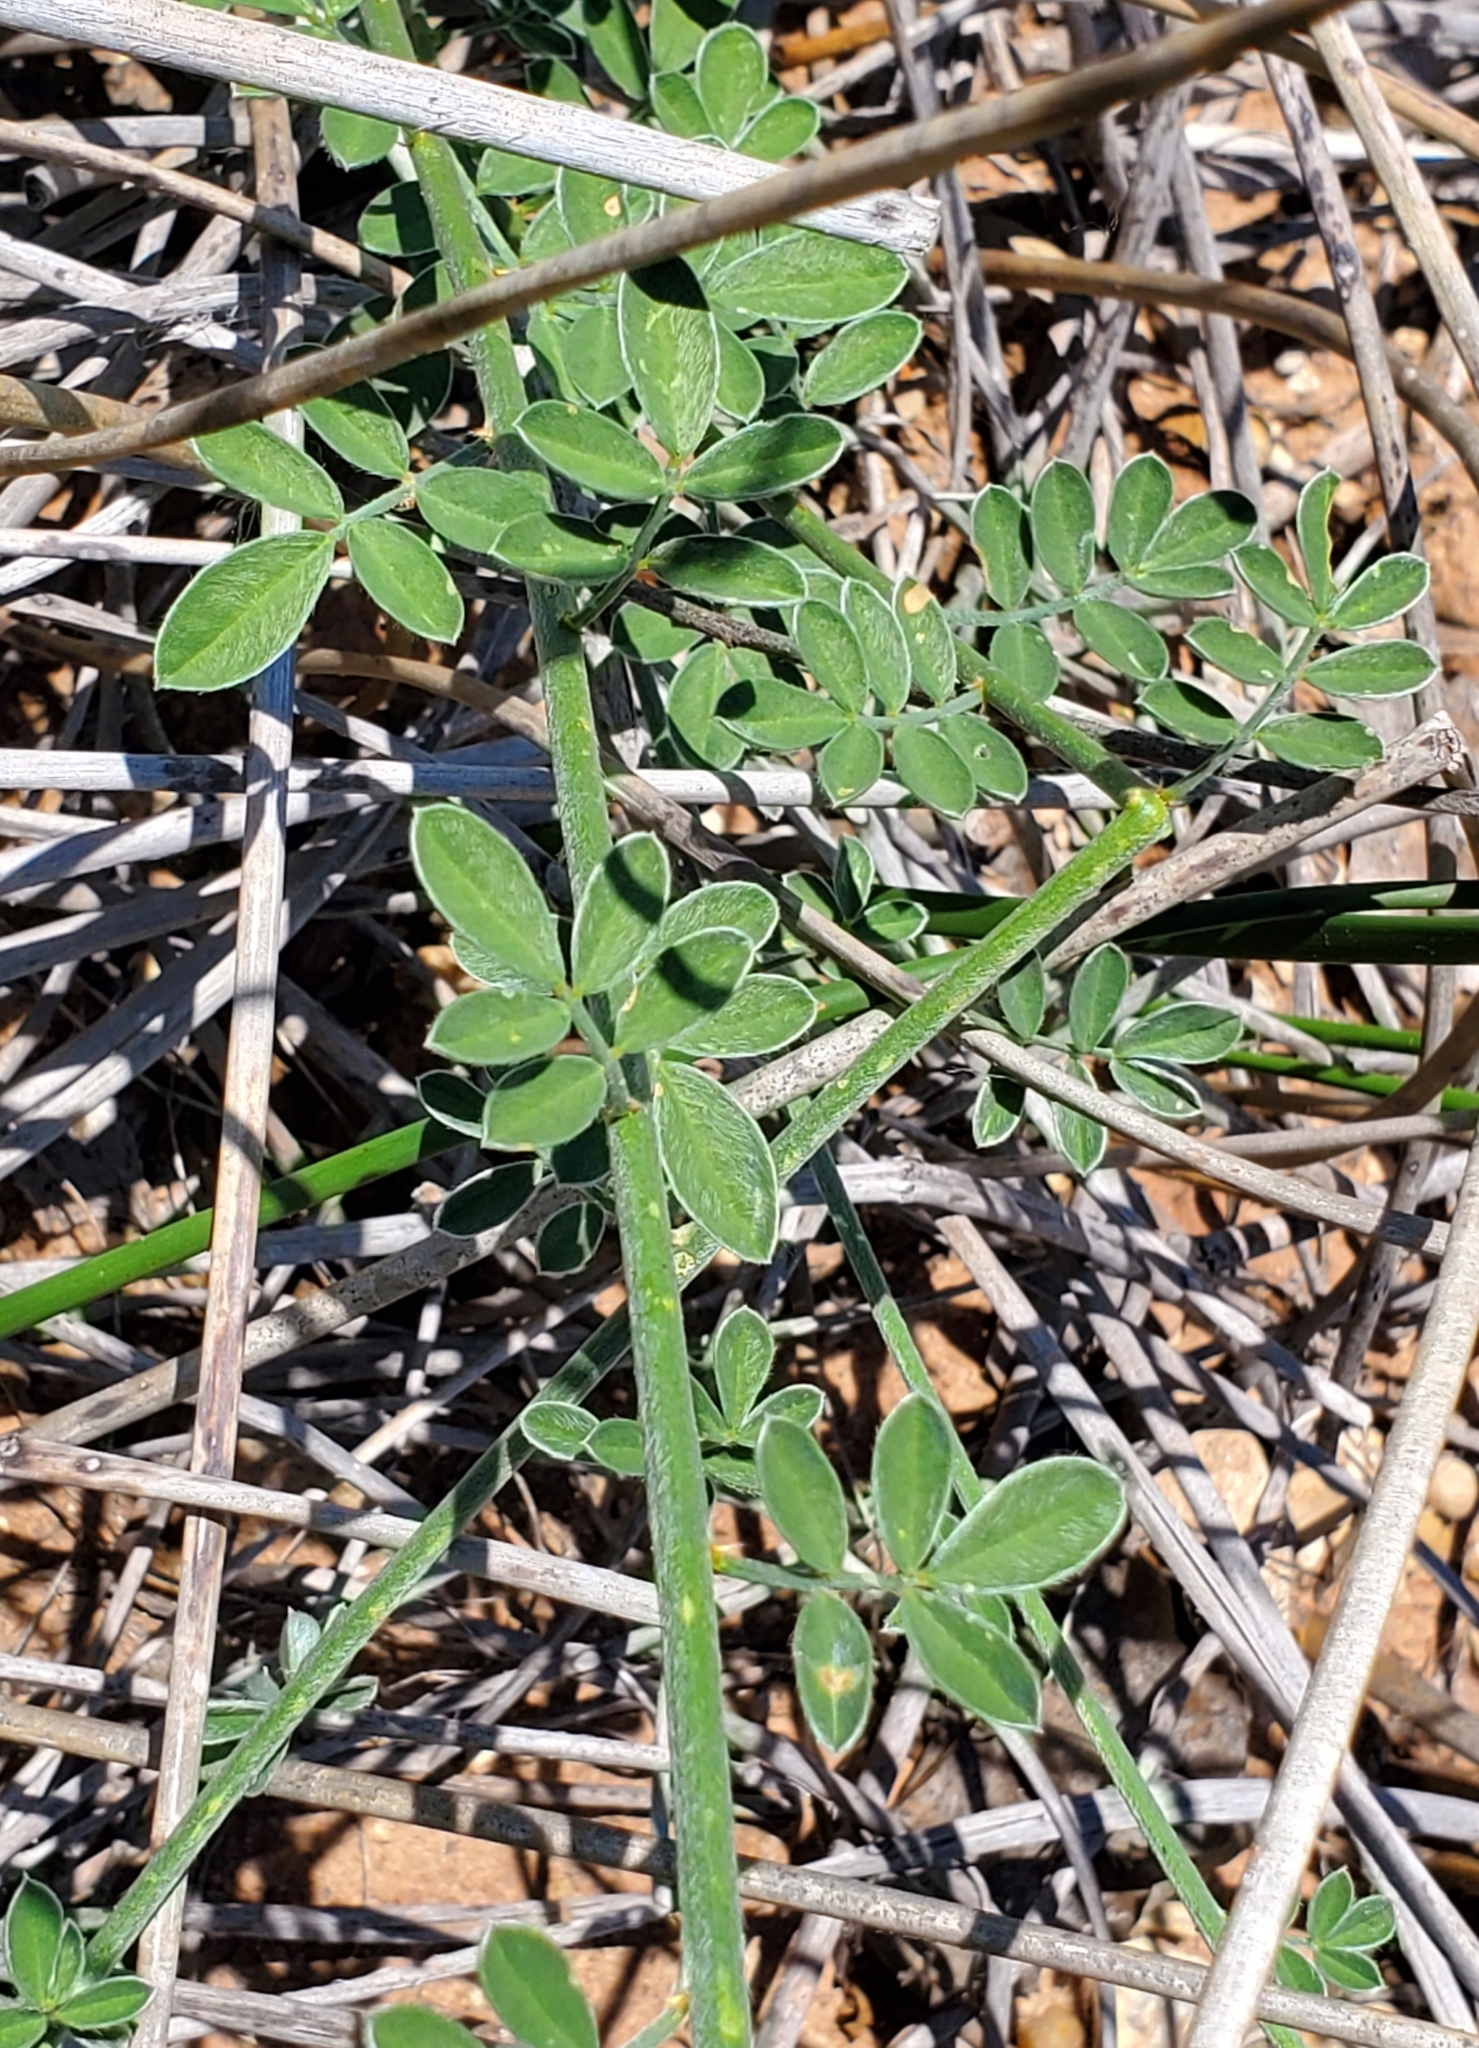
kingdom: Plantae
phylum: Tracheophyta
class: Magnoliopsida
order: Fabales
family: Fabaceae
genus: Dalea
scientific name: Dalea aurea
